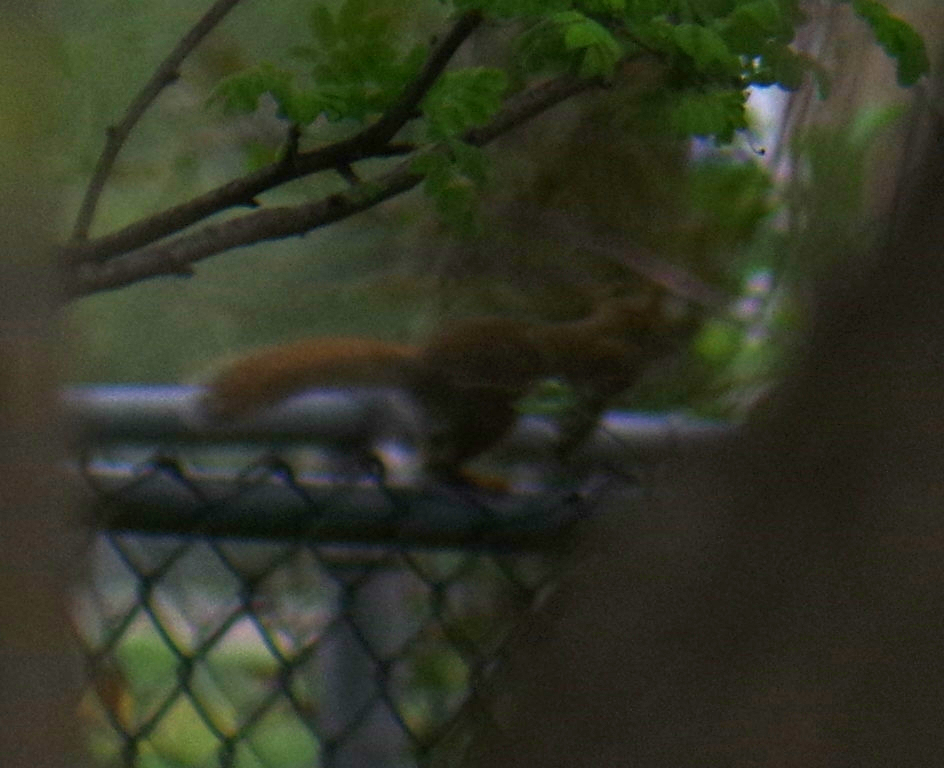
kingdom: Animalia
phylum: Chordata
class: Mammalia
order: Rodentia
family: Sciuridae
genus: Tamiasciurus
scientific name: Tamiasciurus hudsonicus
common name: Red squirrel
